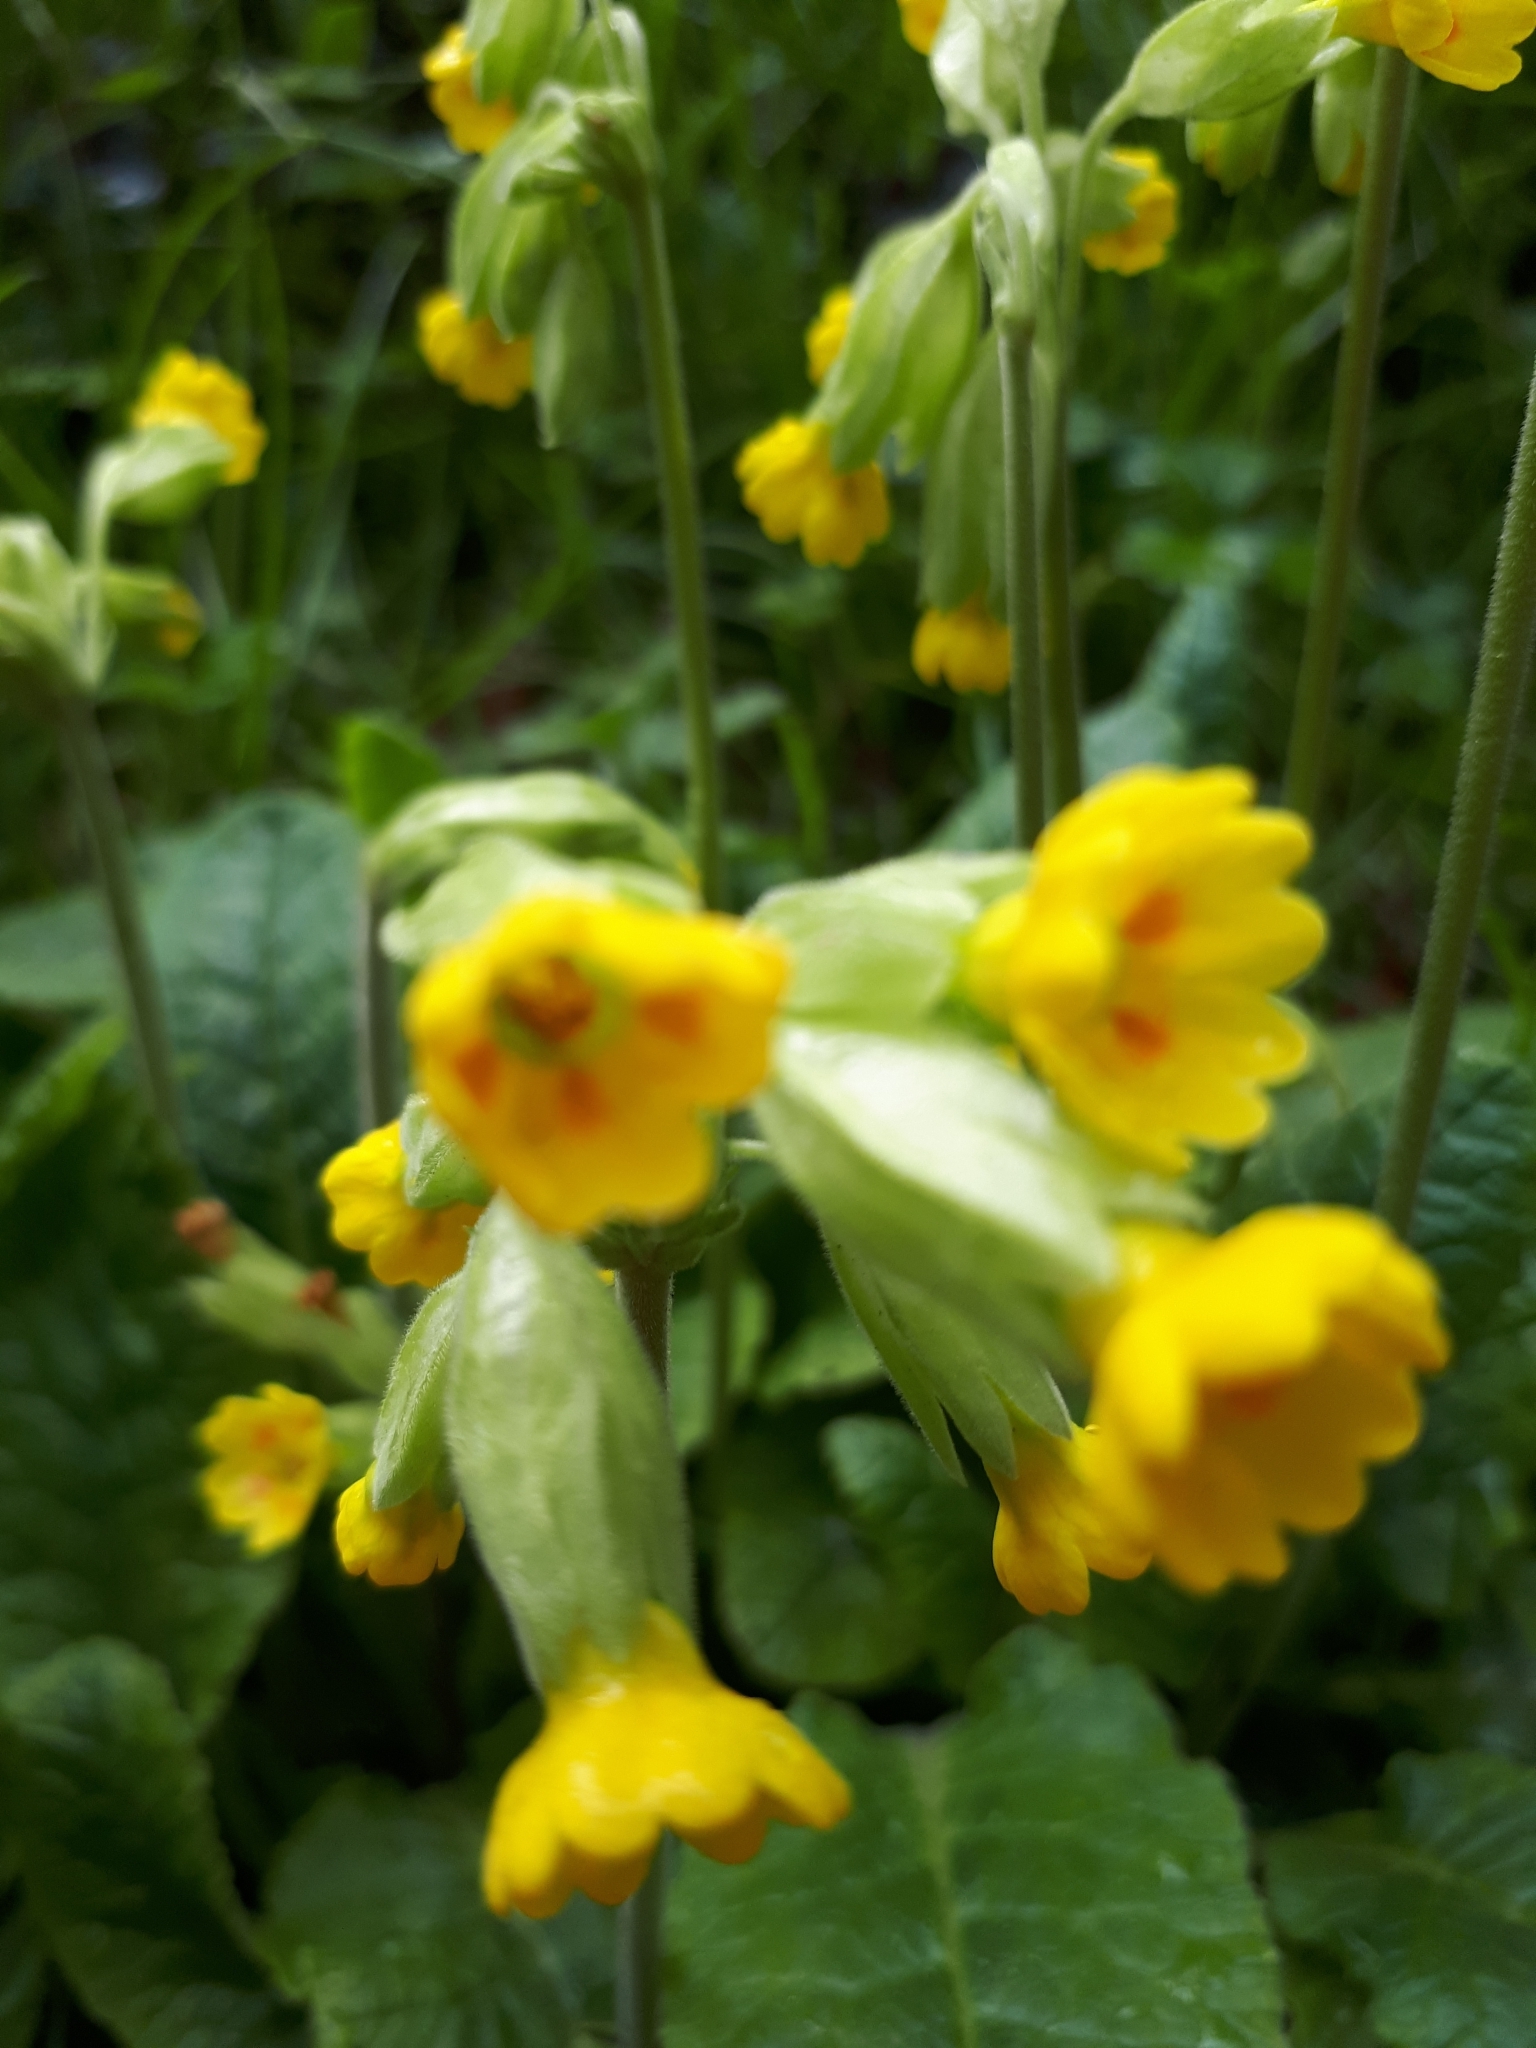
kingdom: Plantae
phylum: Tracheophyta
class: Magnoliopsida
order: Ericales
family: Primulaceae
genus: Primula
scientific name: Primula veris
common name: Cowslip
